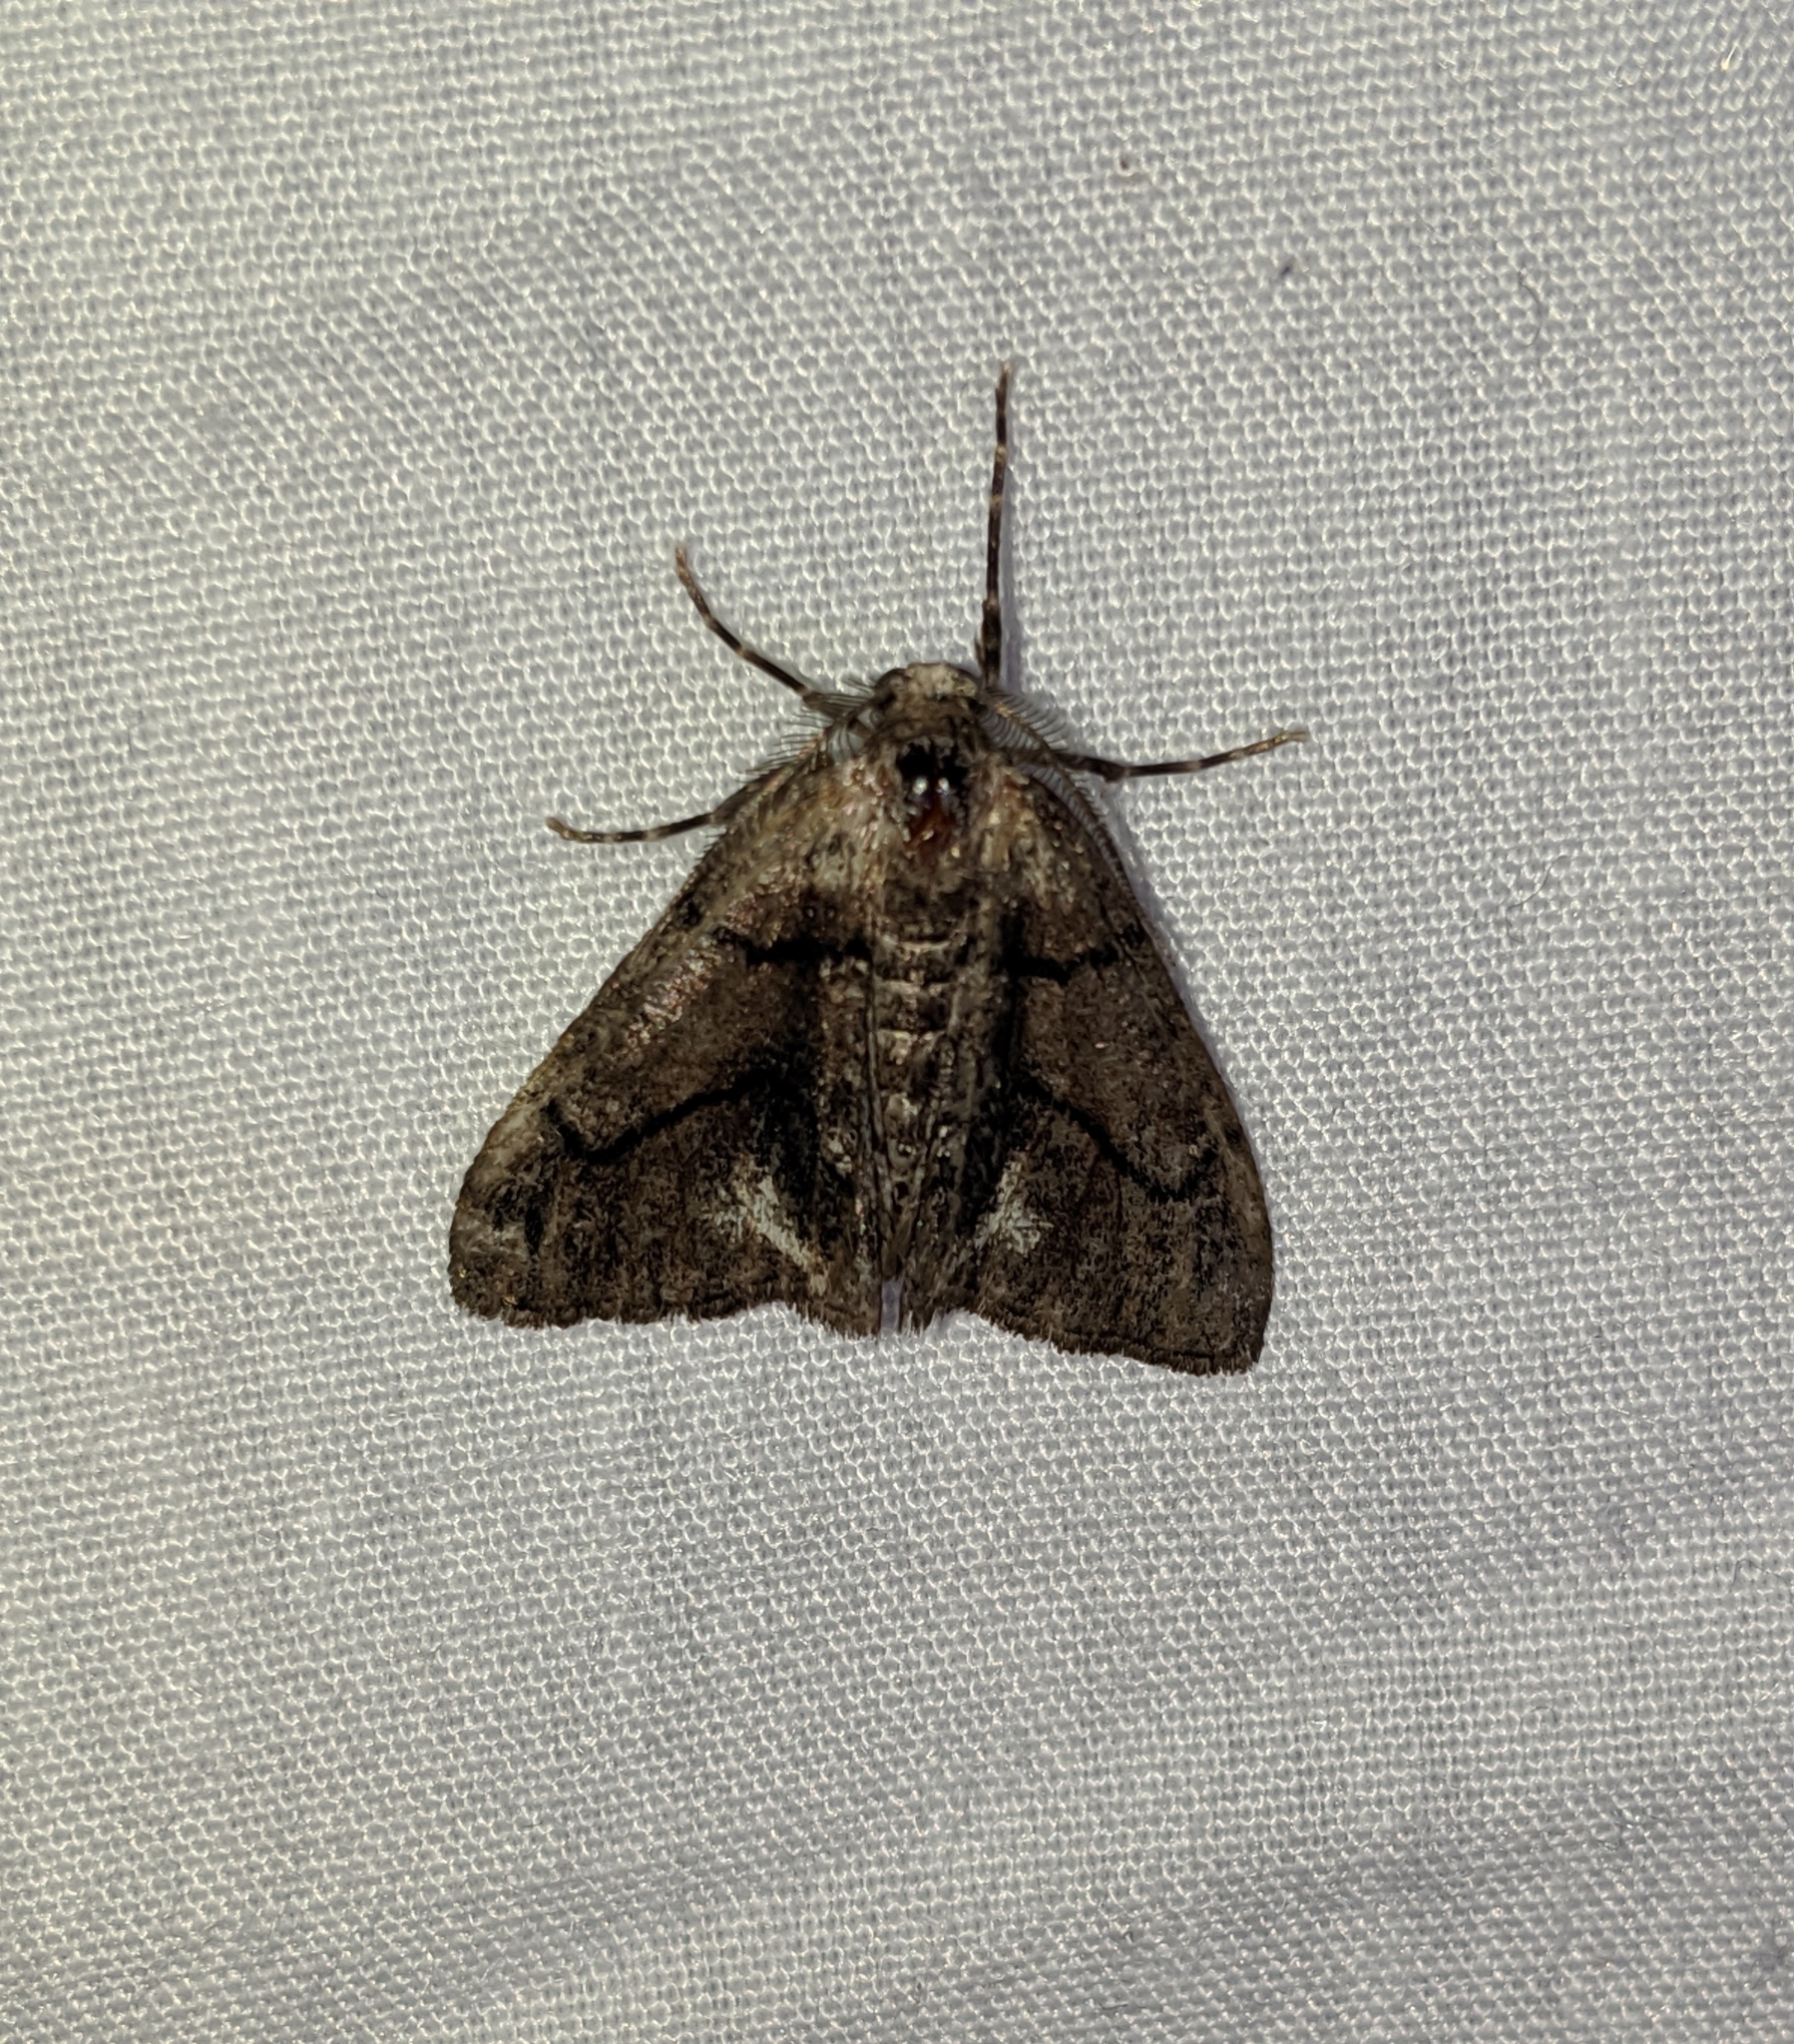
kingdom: Animalia
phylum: Arthropoda
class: Insecta
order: Lepidoptera
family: Geometridae
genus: Gabriola
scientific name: Gabriola dyari
